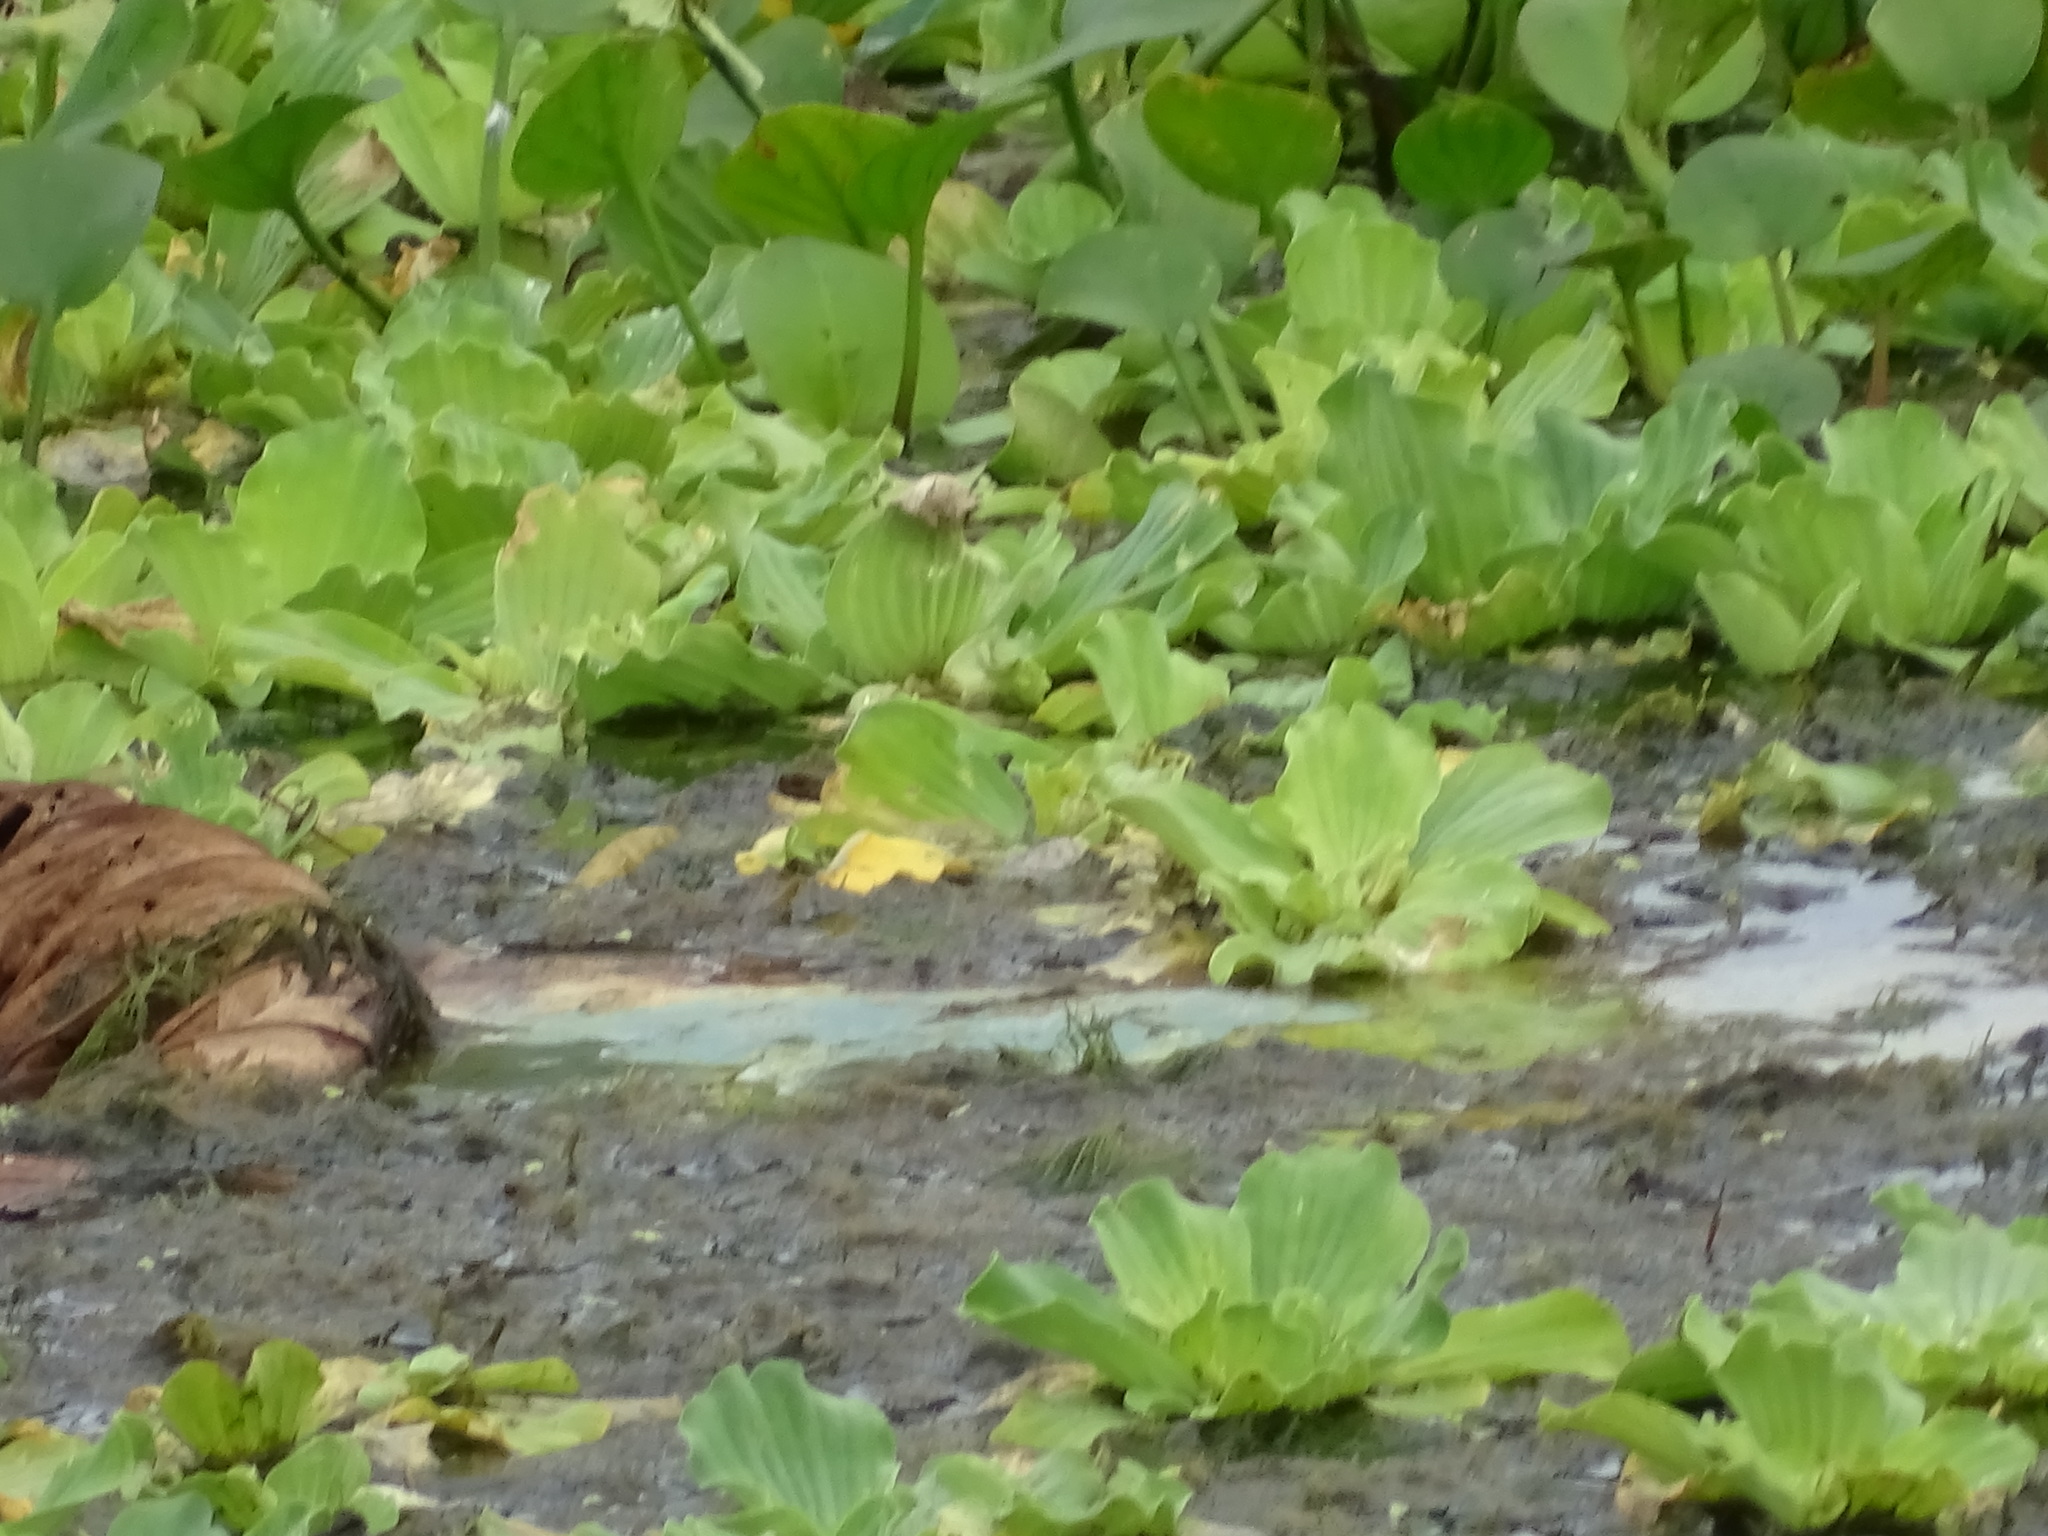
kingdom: Plantae
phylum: Tracheophyta
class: Liliopsida
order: Alismatales
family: Araceae
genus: Pistia
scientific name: Pistia stratiotes
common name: Water lettuce
